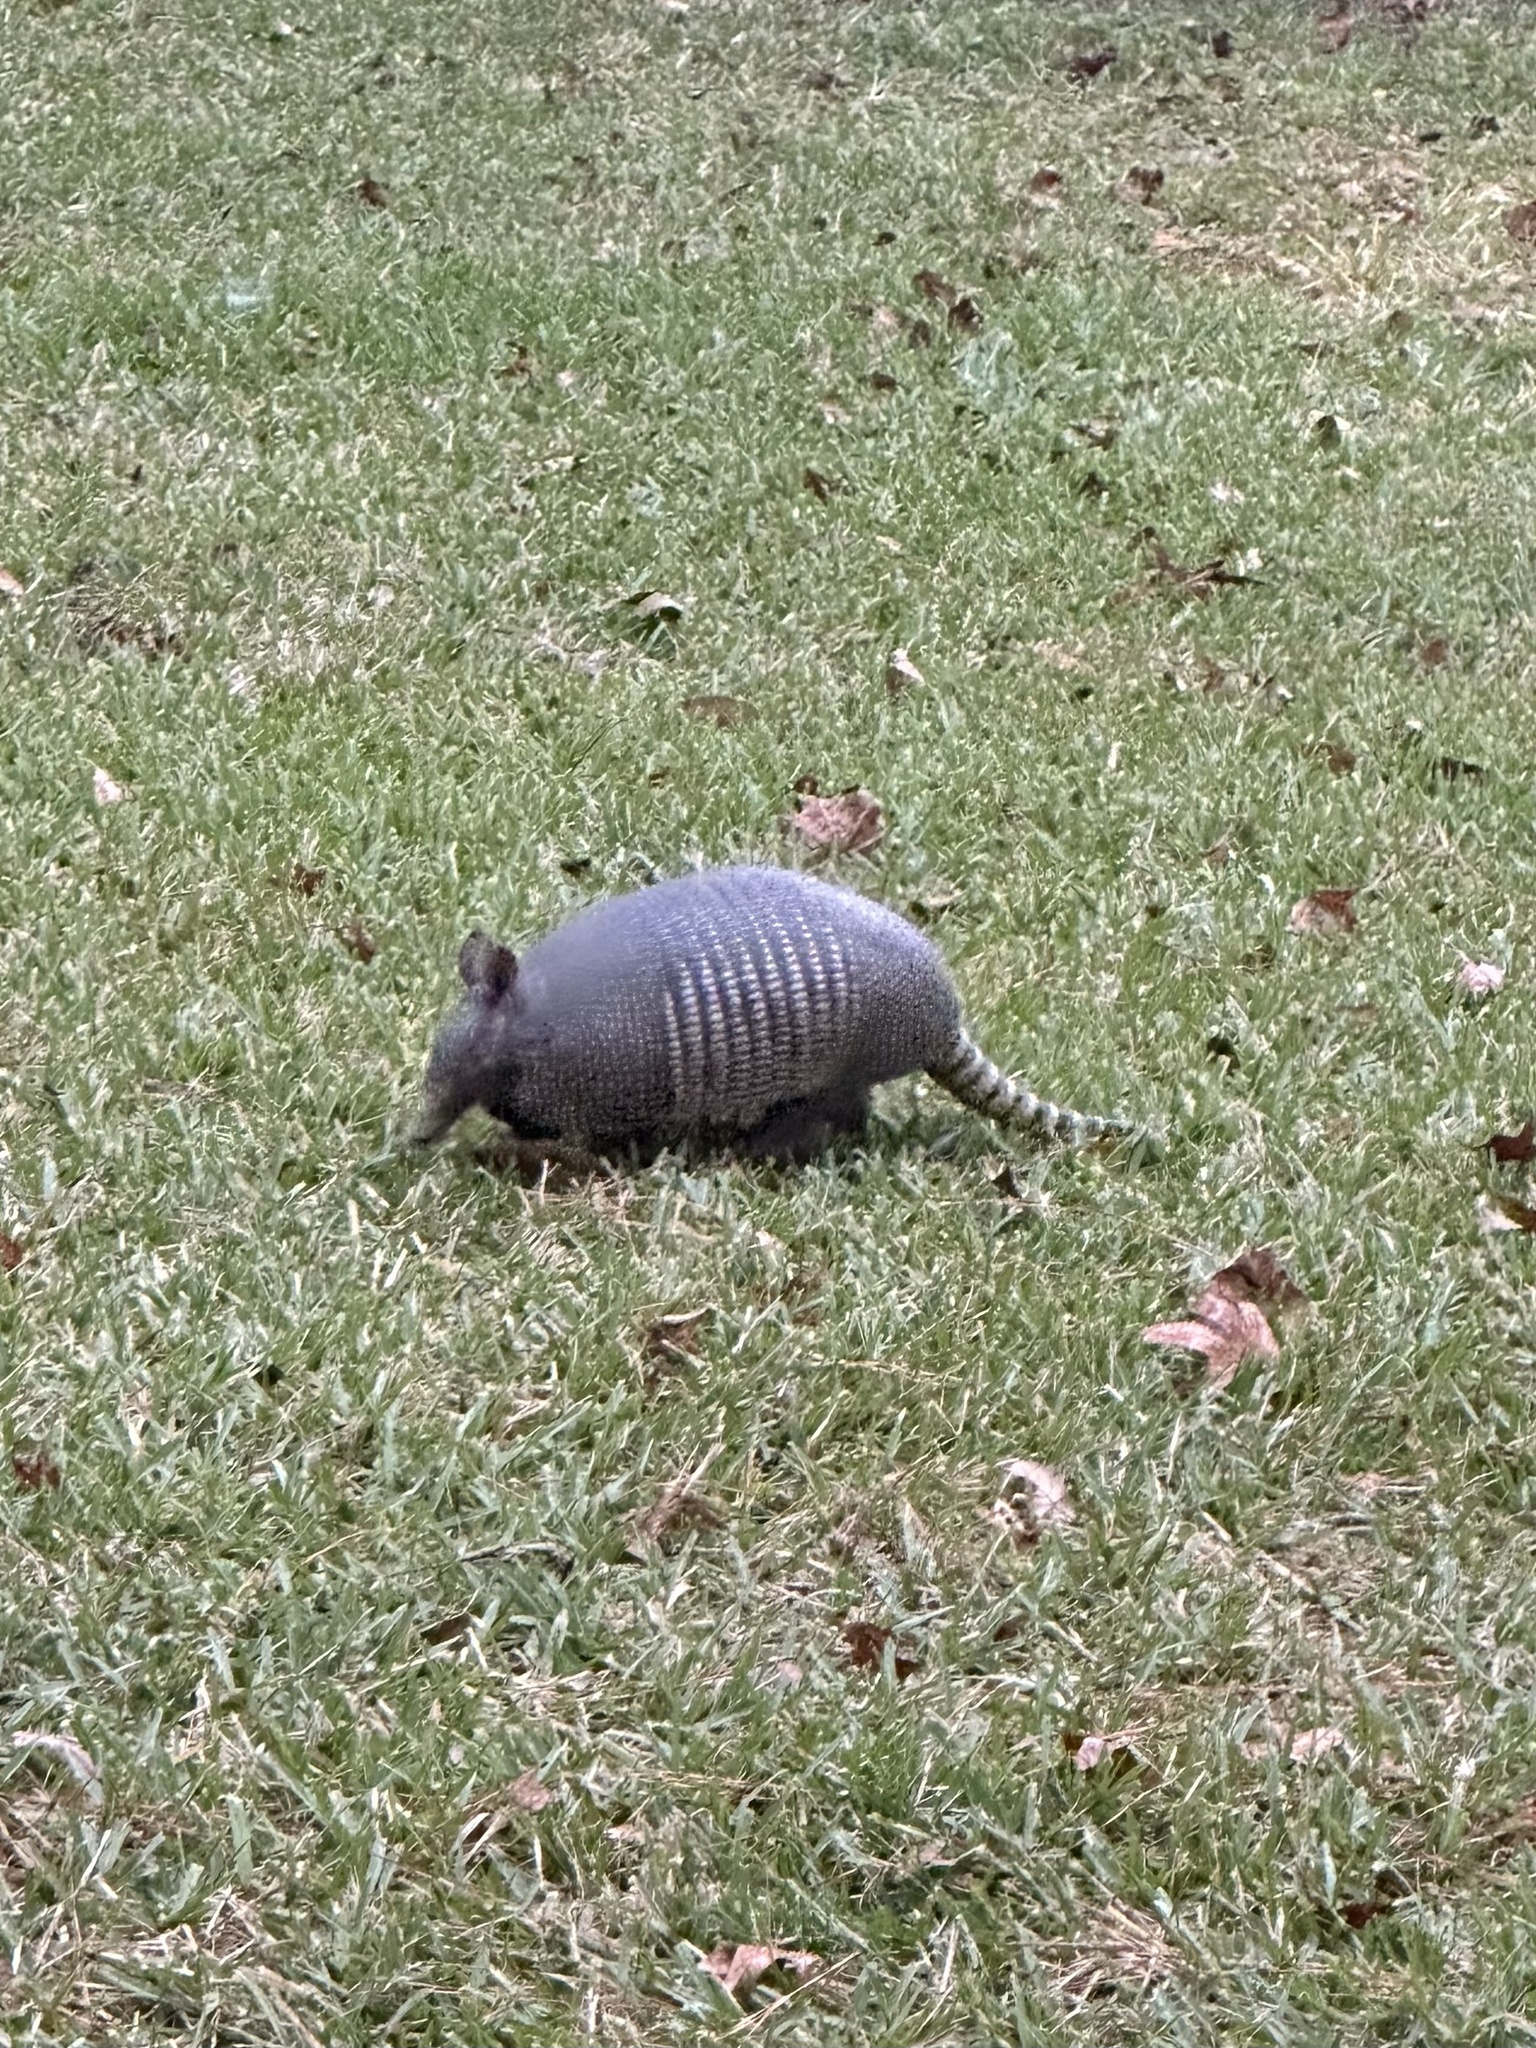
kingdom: Animalia
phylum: Chordata
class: Mammalia
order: Cingulata
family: Dasypodidae
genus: Dasypus
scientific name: Dasypus novemcinctus
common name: Nine-banded armadillo
